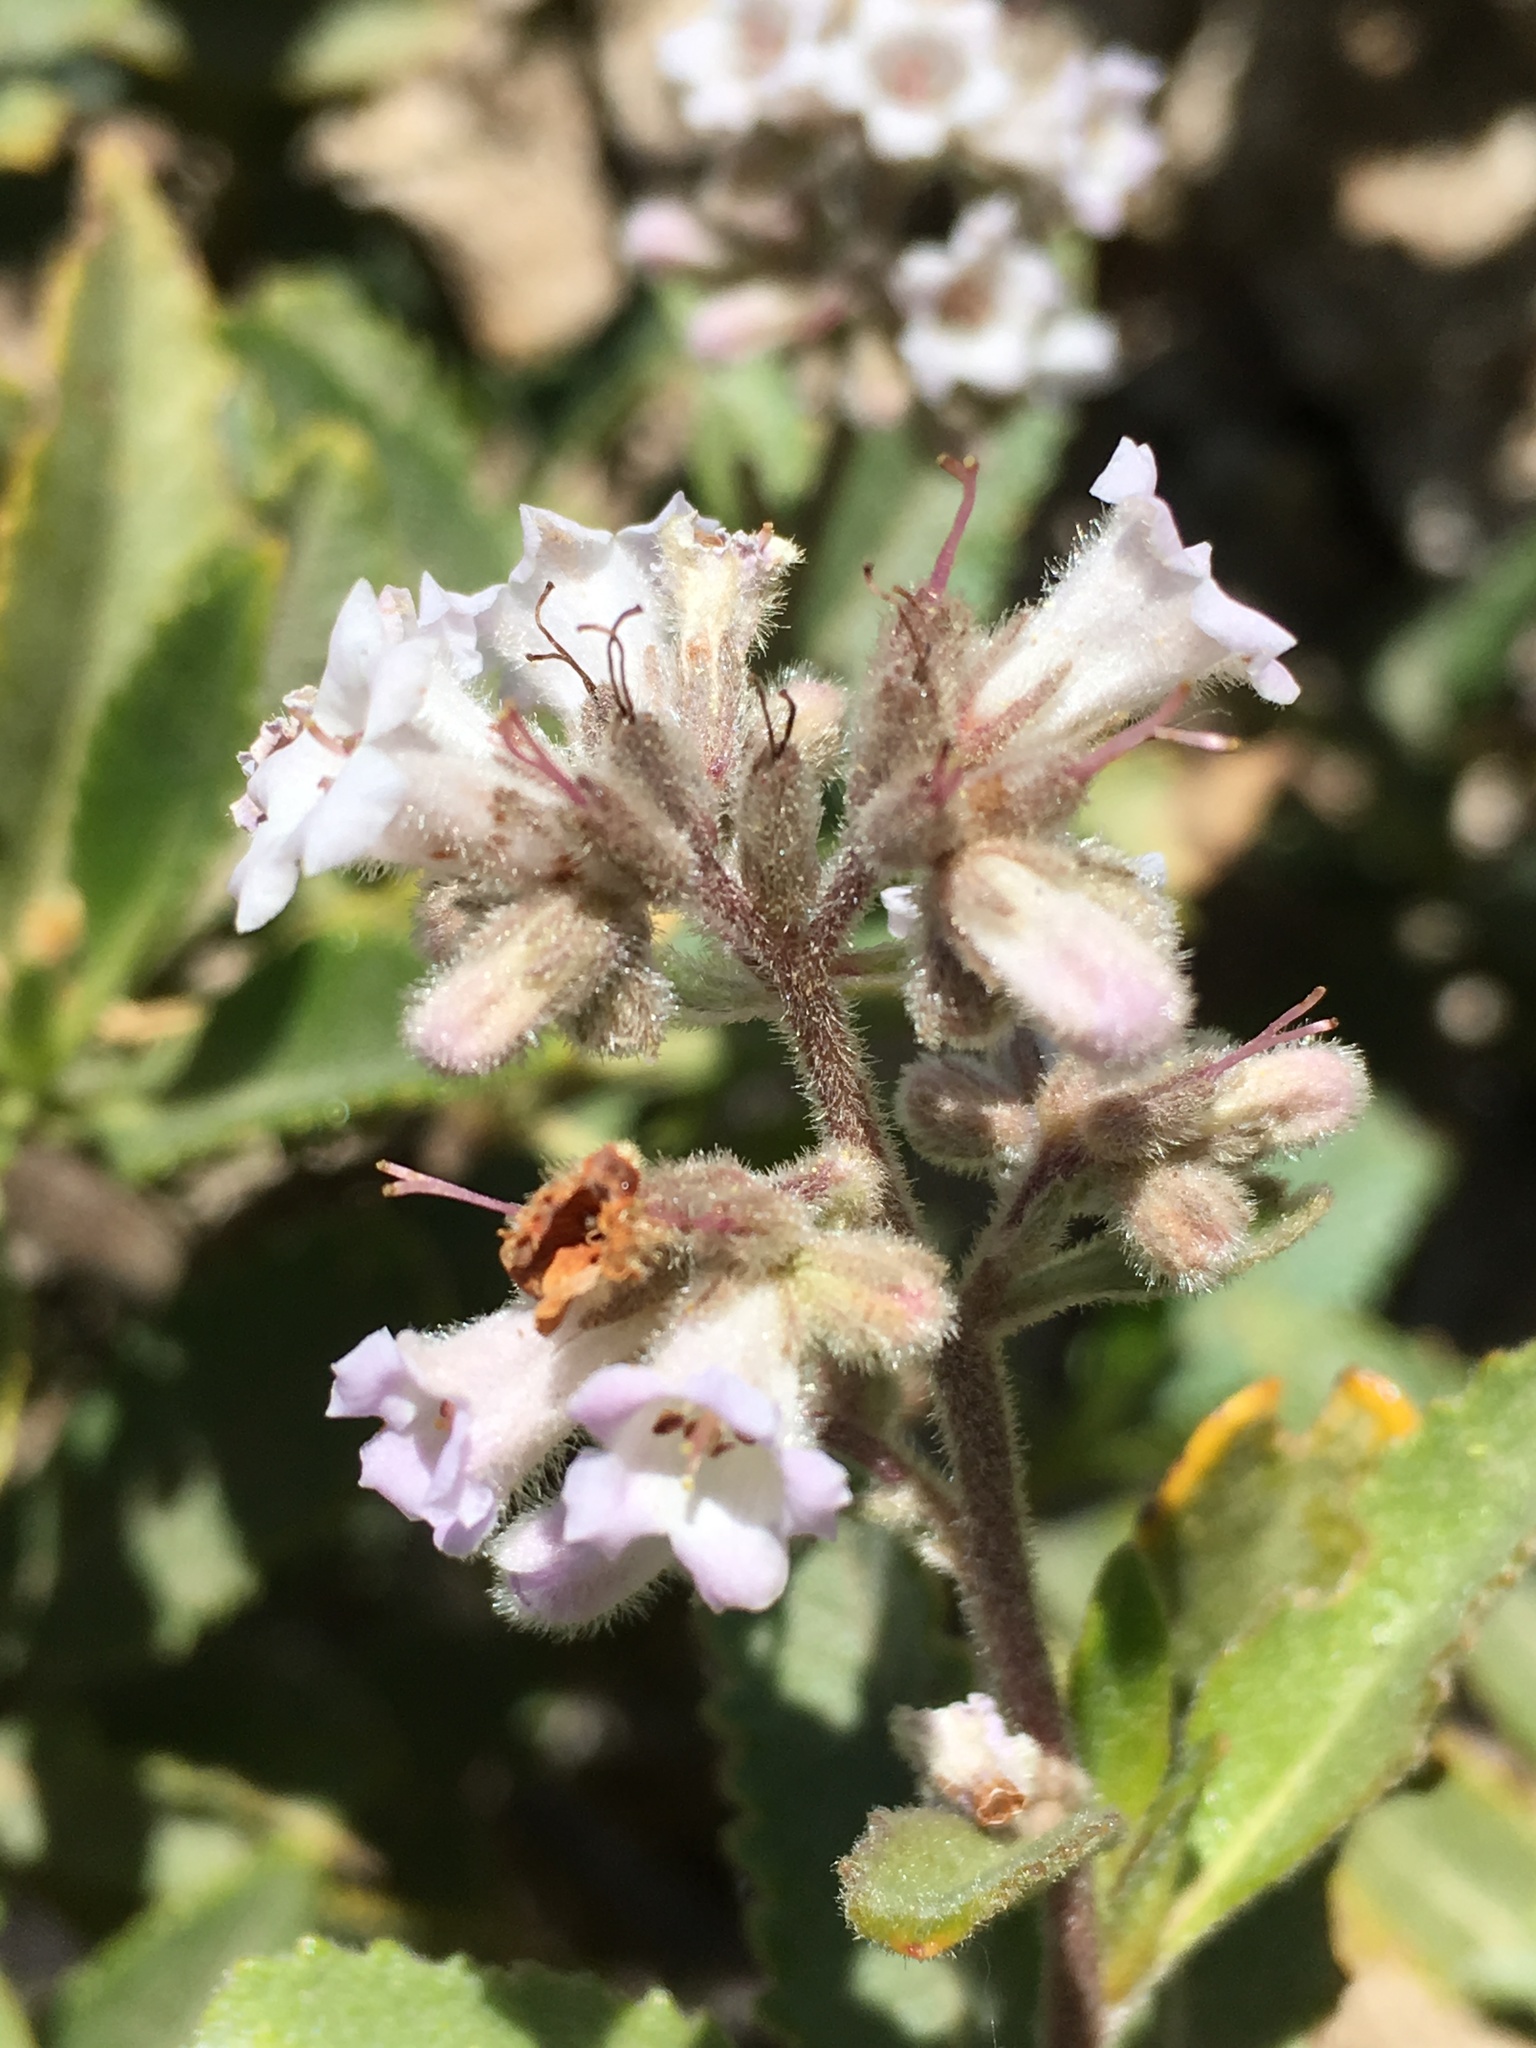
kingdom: Plantae
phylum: Tracheophyta
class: Magnoliopsida
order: Boraginales
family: Namaceae
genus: Eriodictyon
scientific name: Eriodictyon trichocalyx
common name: Hairy yerba-santa
